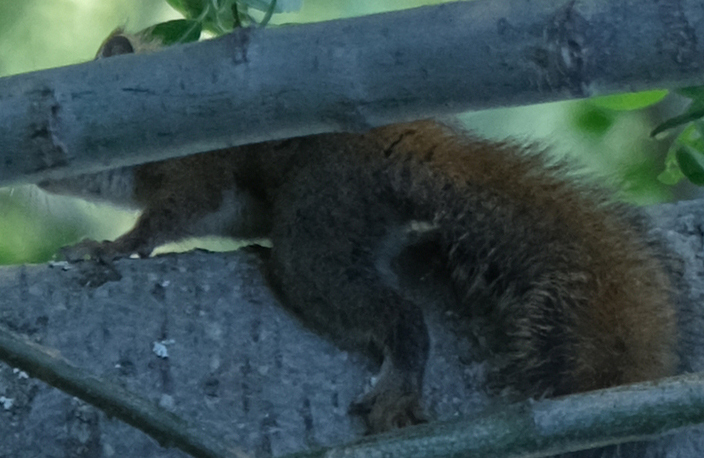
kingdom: Animalia
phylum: Chordata
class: Mammalia
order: Rodentia
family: Sciuridae
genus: Tamiasciurus
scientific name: Tamiasciurus hudsonicus
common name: Red squirrel
